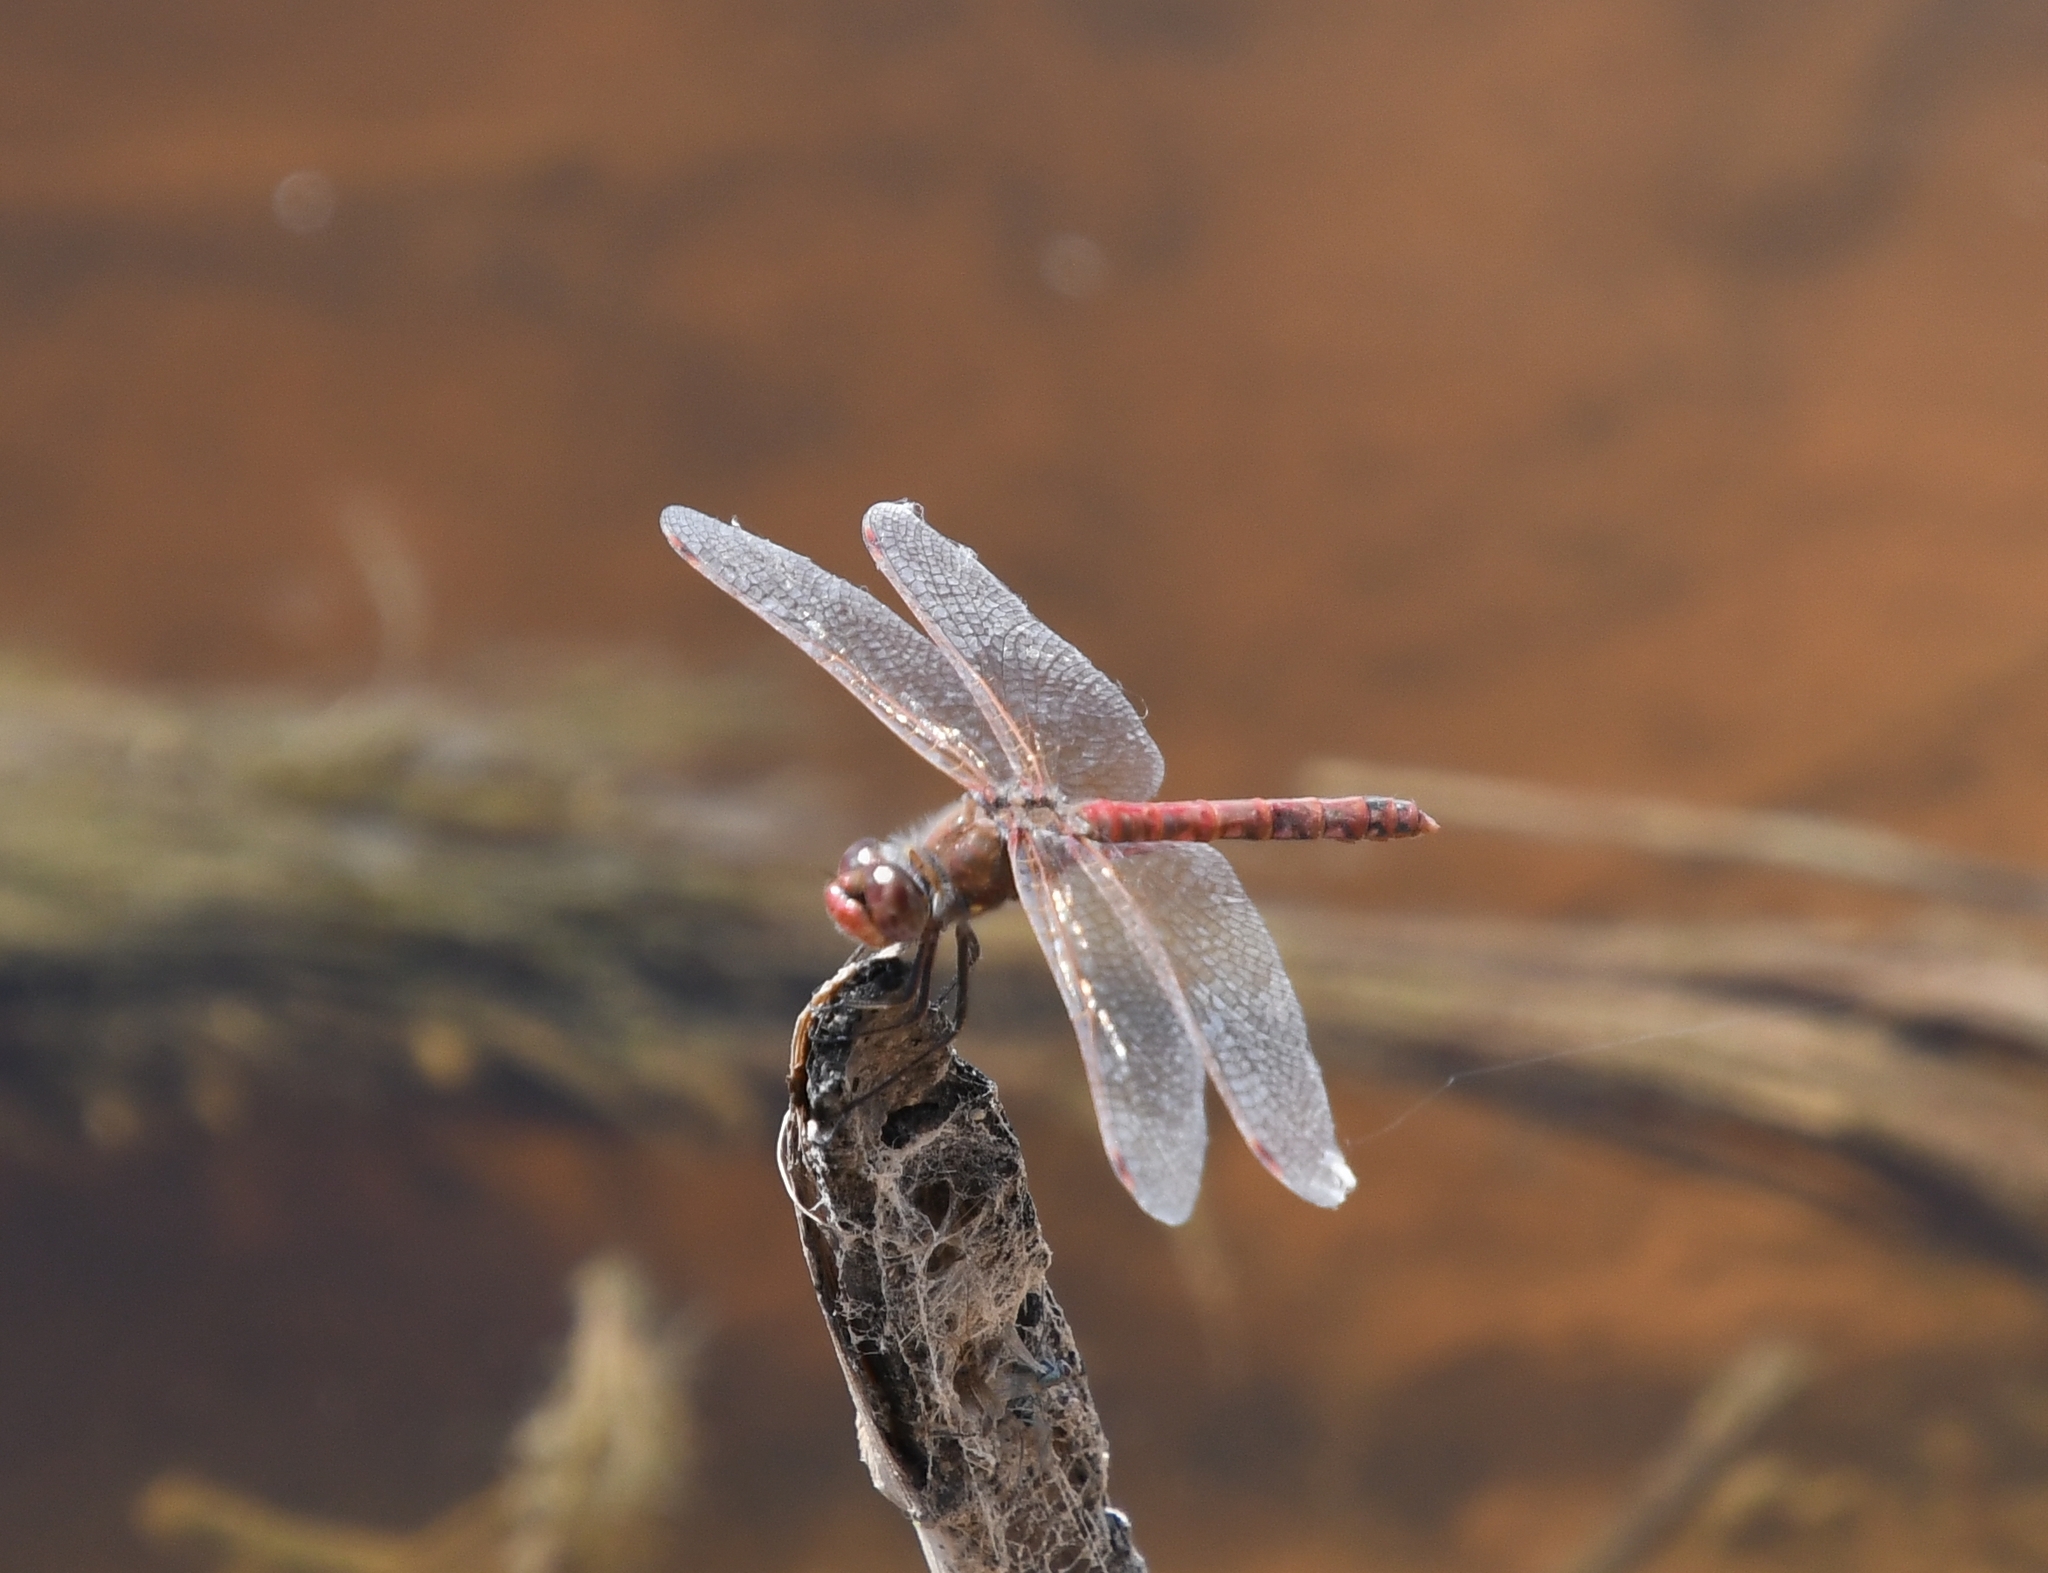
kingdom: Animalia
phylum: Arthropoda
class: Insecta
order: Odonata
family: Libellulidae
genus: Sympetrum
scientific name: Sympetrum corruptum
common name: Variegated meadowhawk
